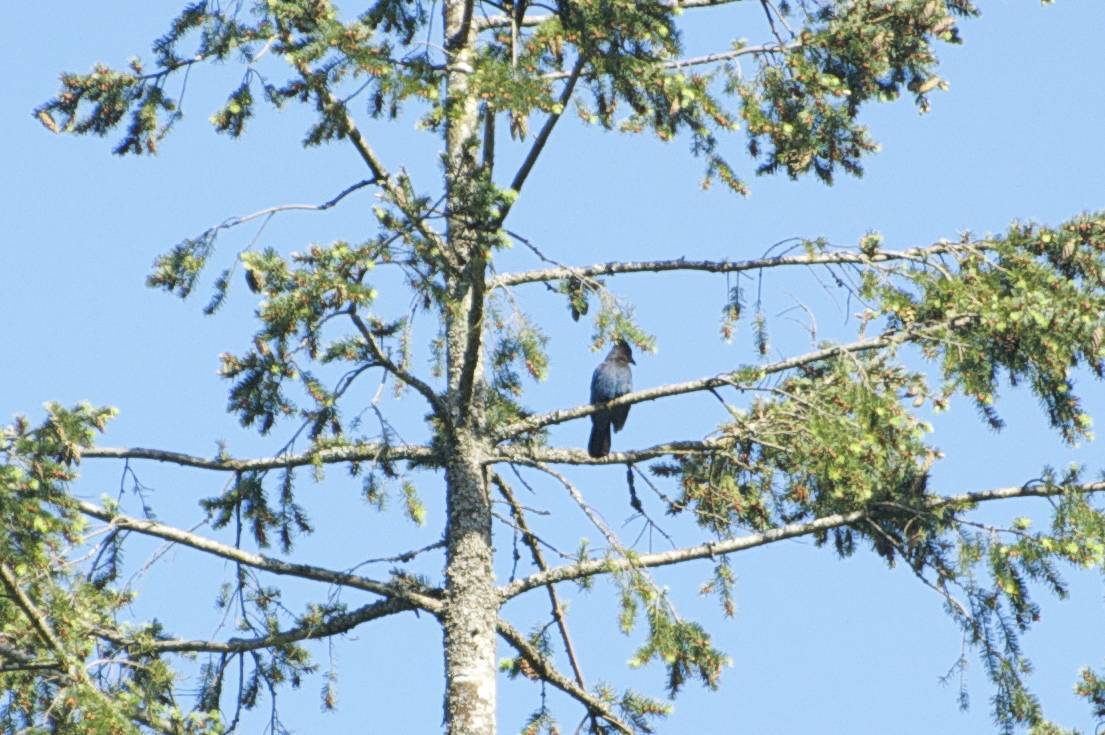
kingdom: Animalia
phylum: Chordata
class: Aves
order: Passeriformes
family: Corvidae
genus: Cyanocitta
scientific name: Cyanocitta stelleri
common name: Steller's jay
